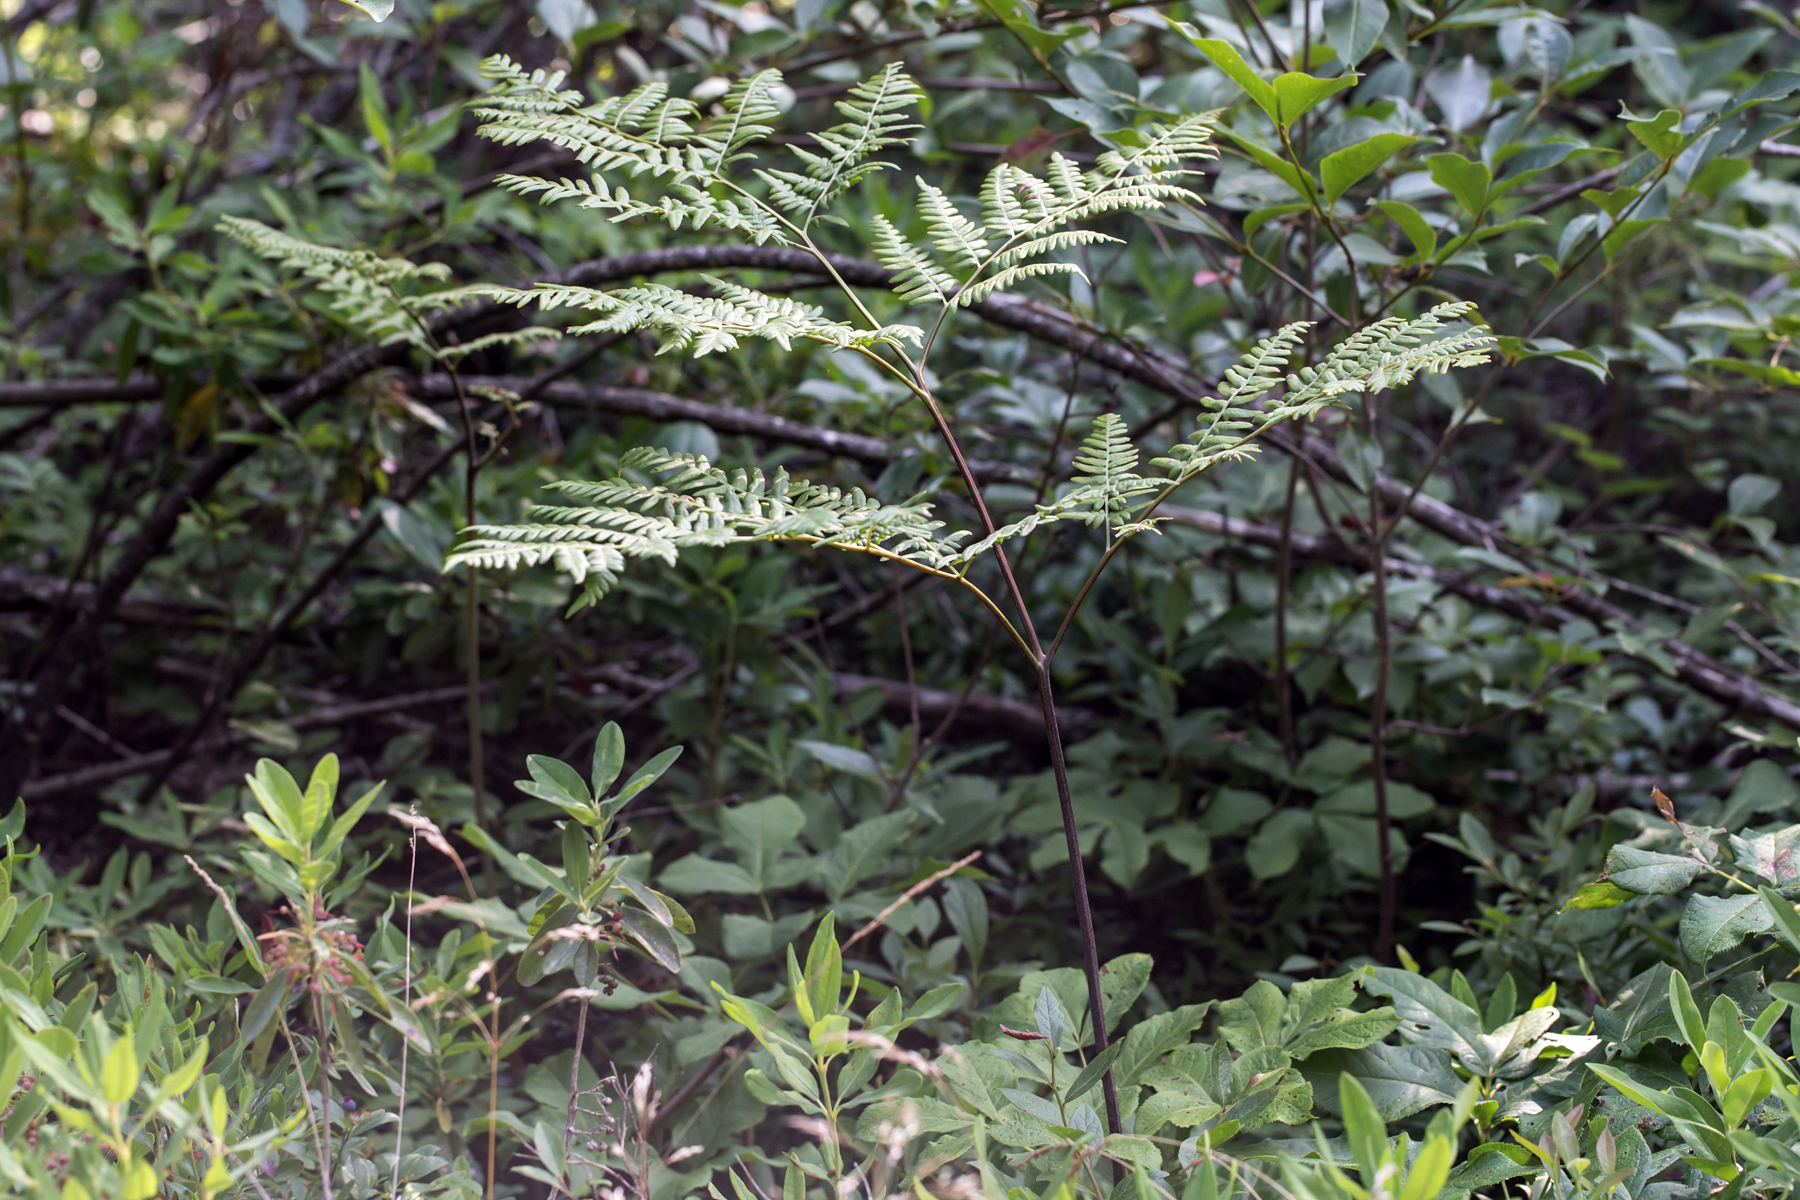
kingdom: Plantae
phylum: Tracheophyta
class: Polypodiopsida
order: Polypodiales
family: Dennstaedtiaceae
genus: Pteridium
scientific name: Pteridium aquilinum
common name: Bracken
